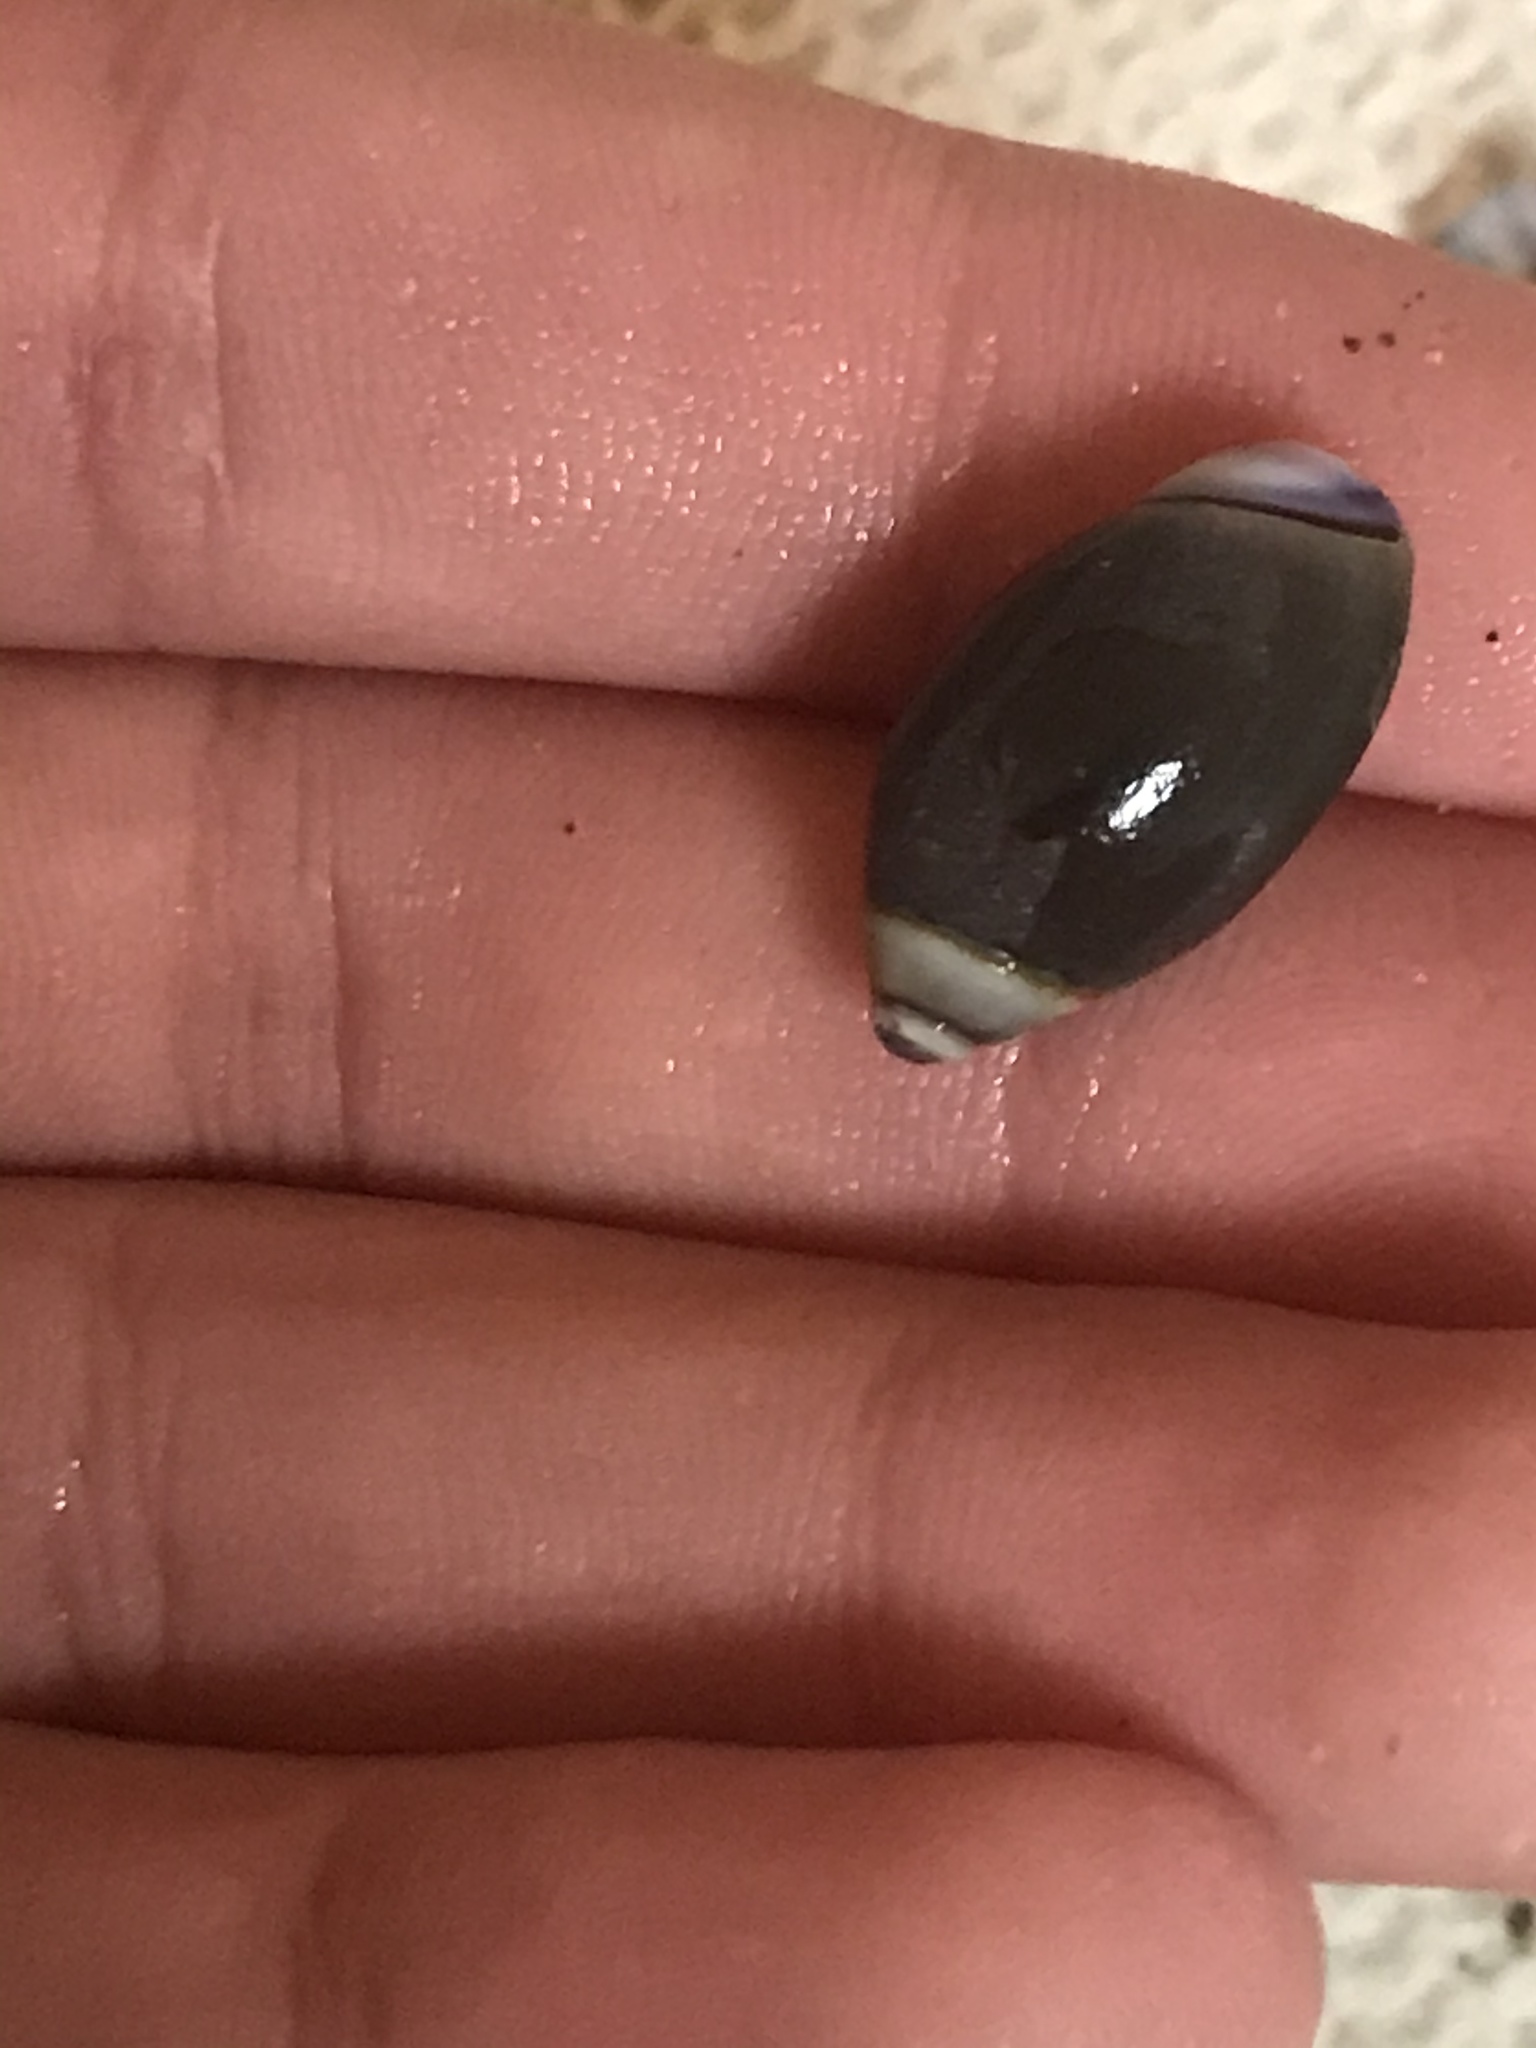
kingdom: Animalia
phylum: Mollusca
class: Gastropoda
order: Neogastropoda
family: Olividae
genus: Callianax
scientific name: Callianax biplicata
